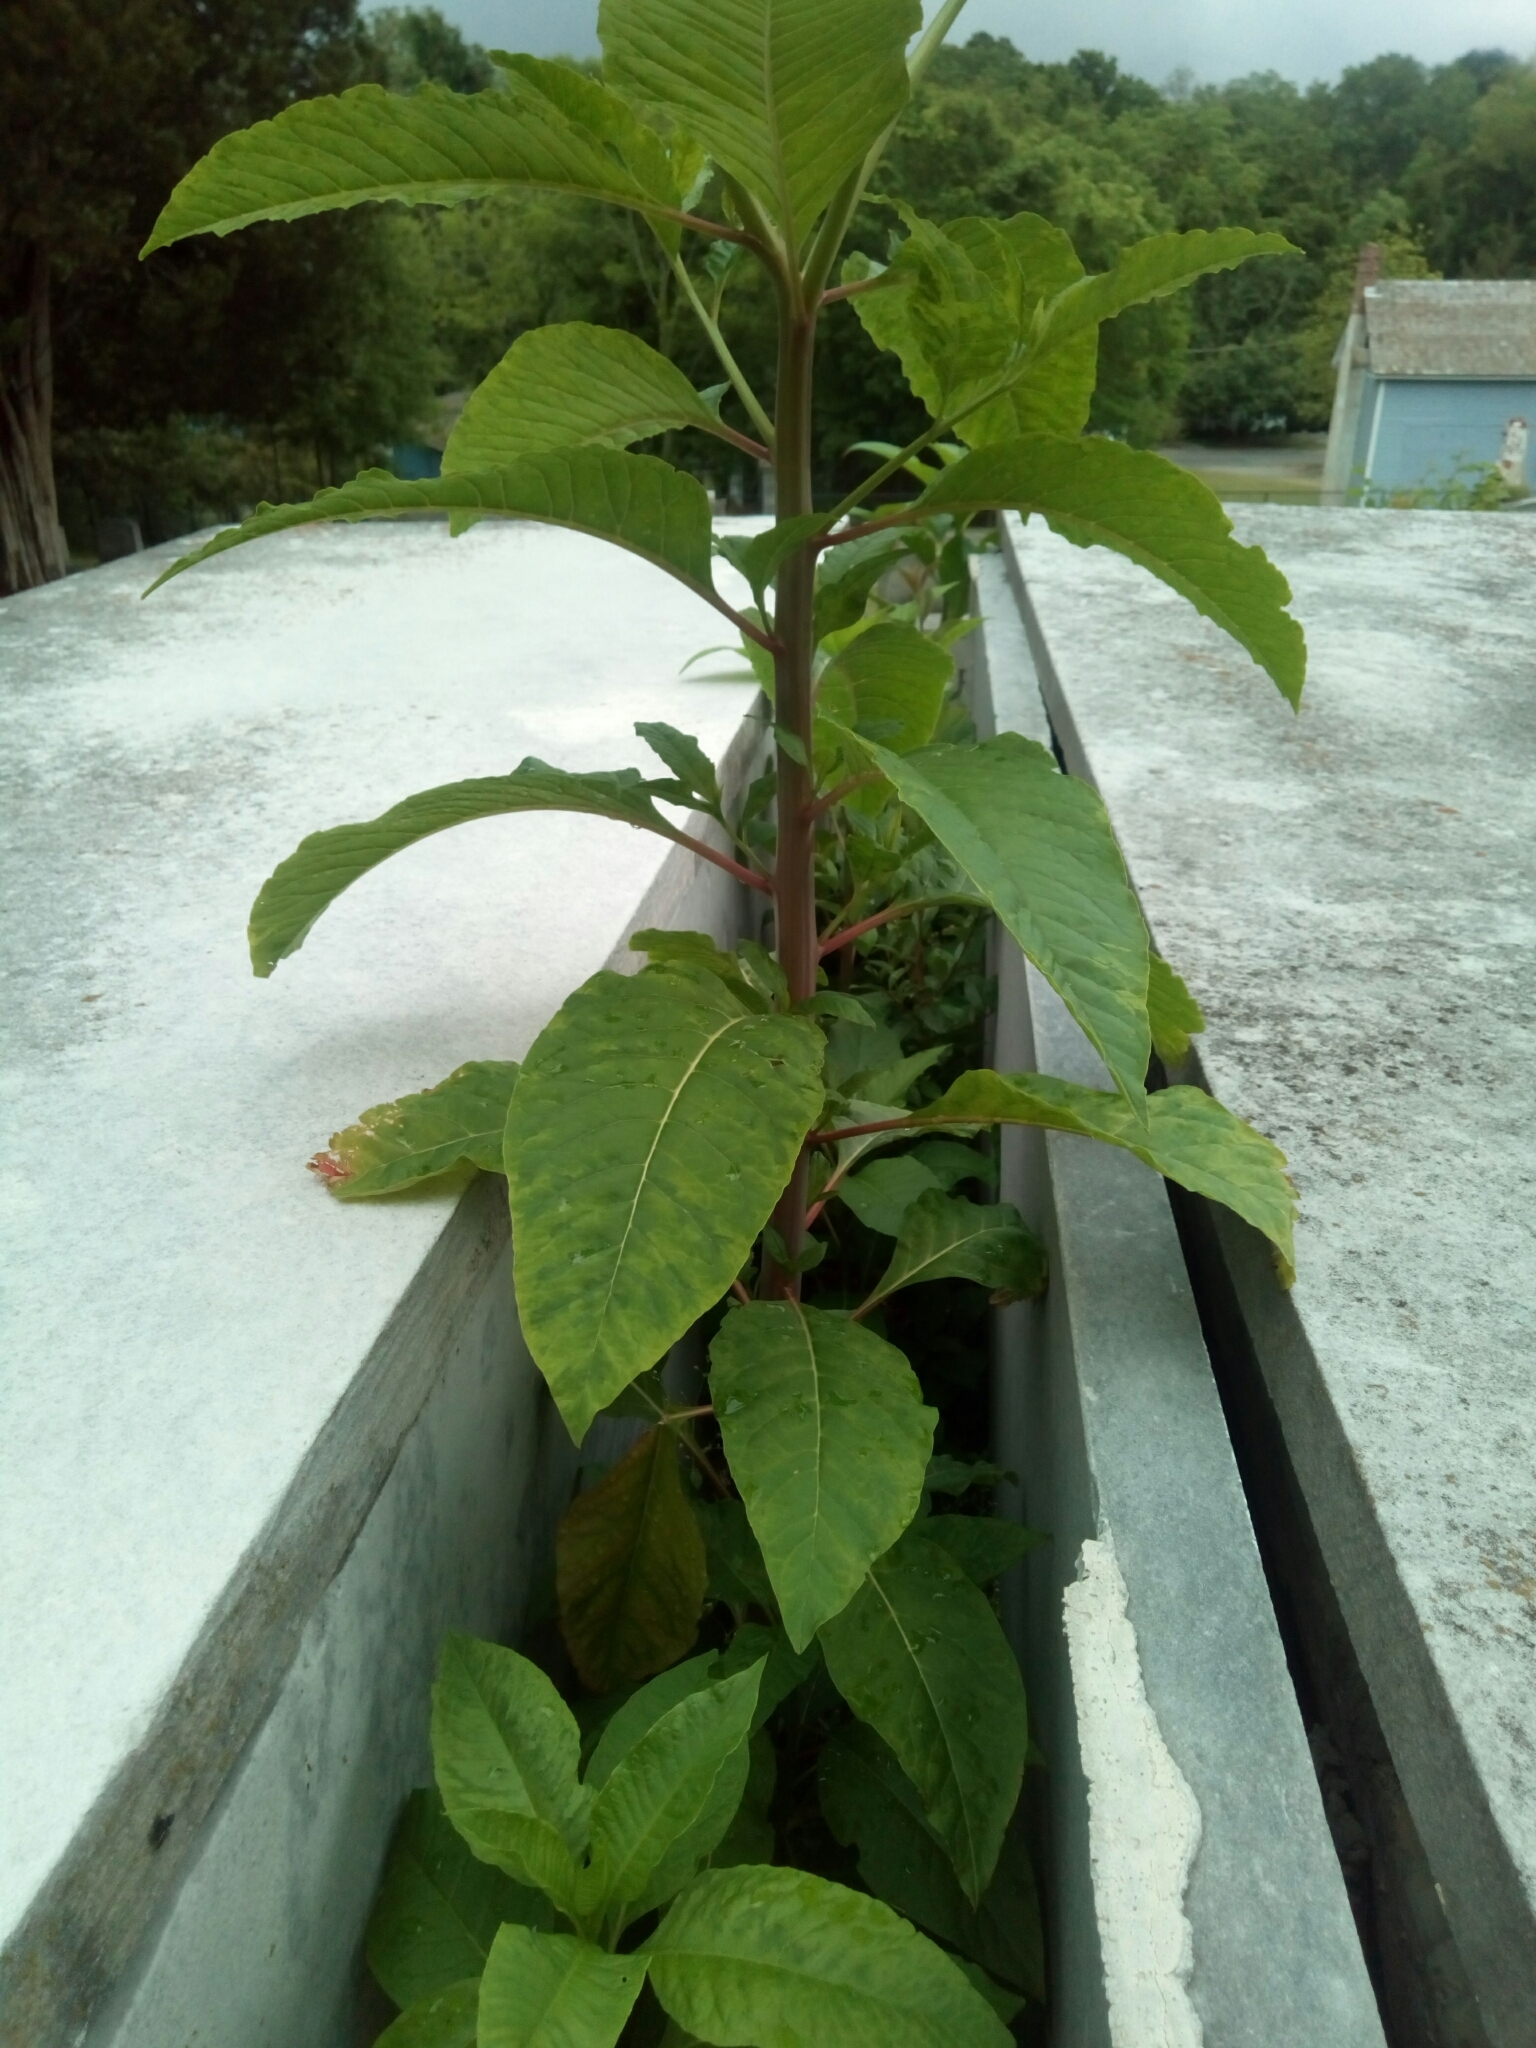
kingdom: Plantae
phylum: Tracheophyta
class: Magnoliopsida
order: Caryophyllales
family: Phytolaccaceae
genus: Phytolacca
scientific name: Phytolacca americana
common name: American pokeweed
